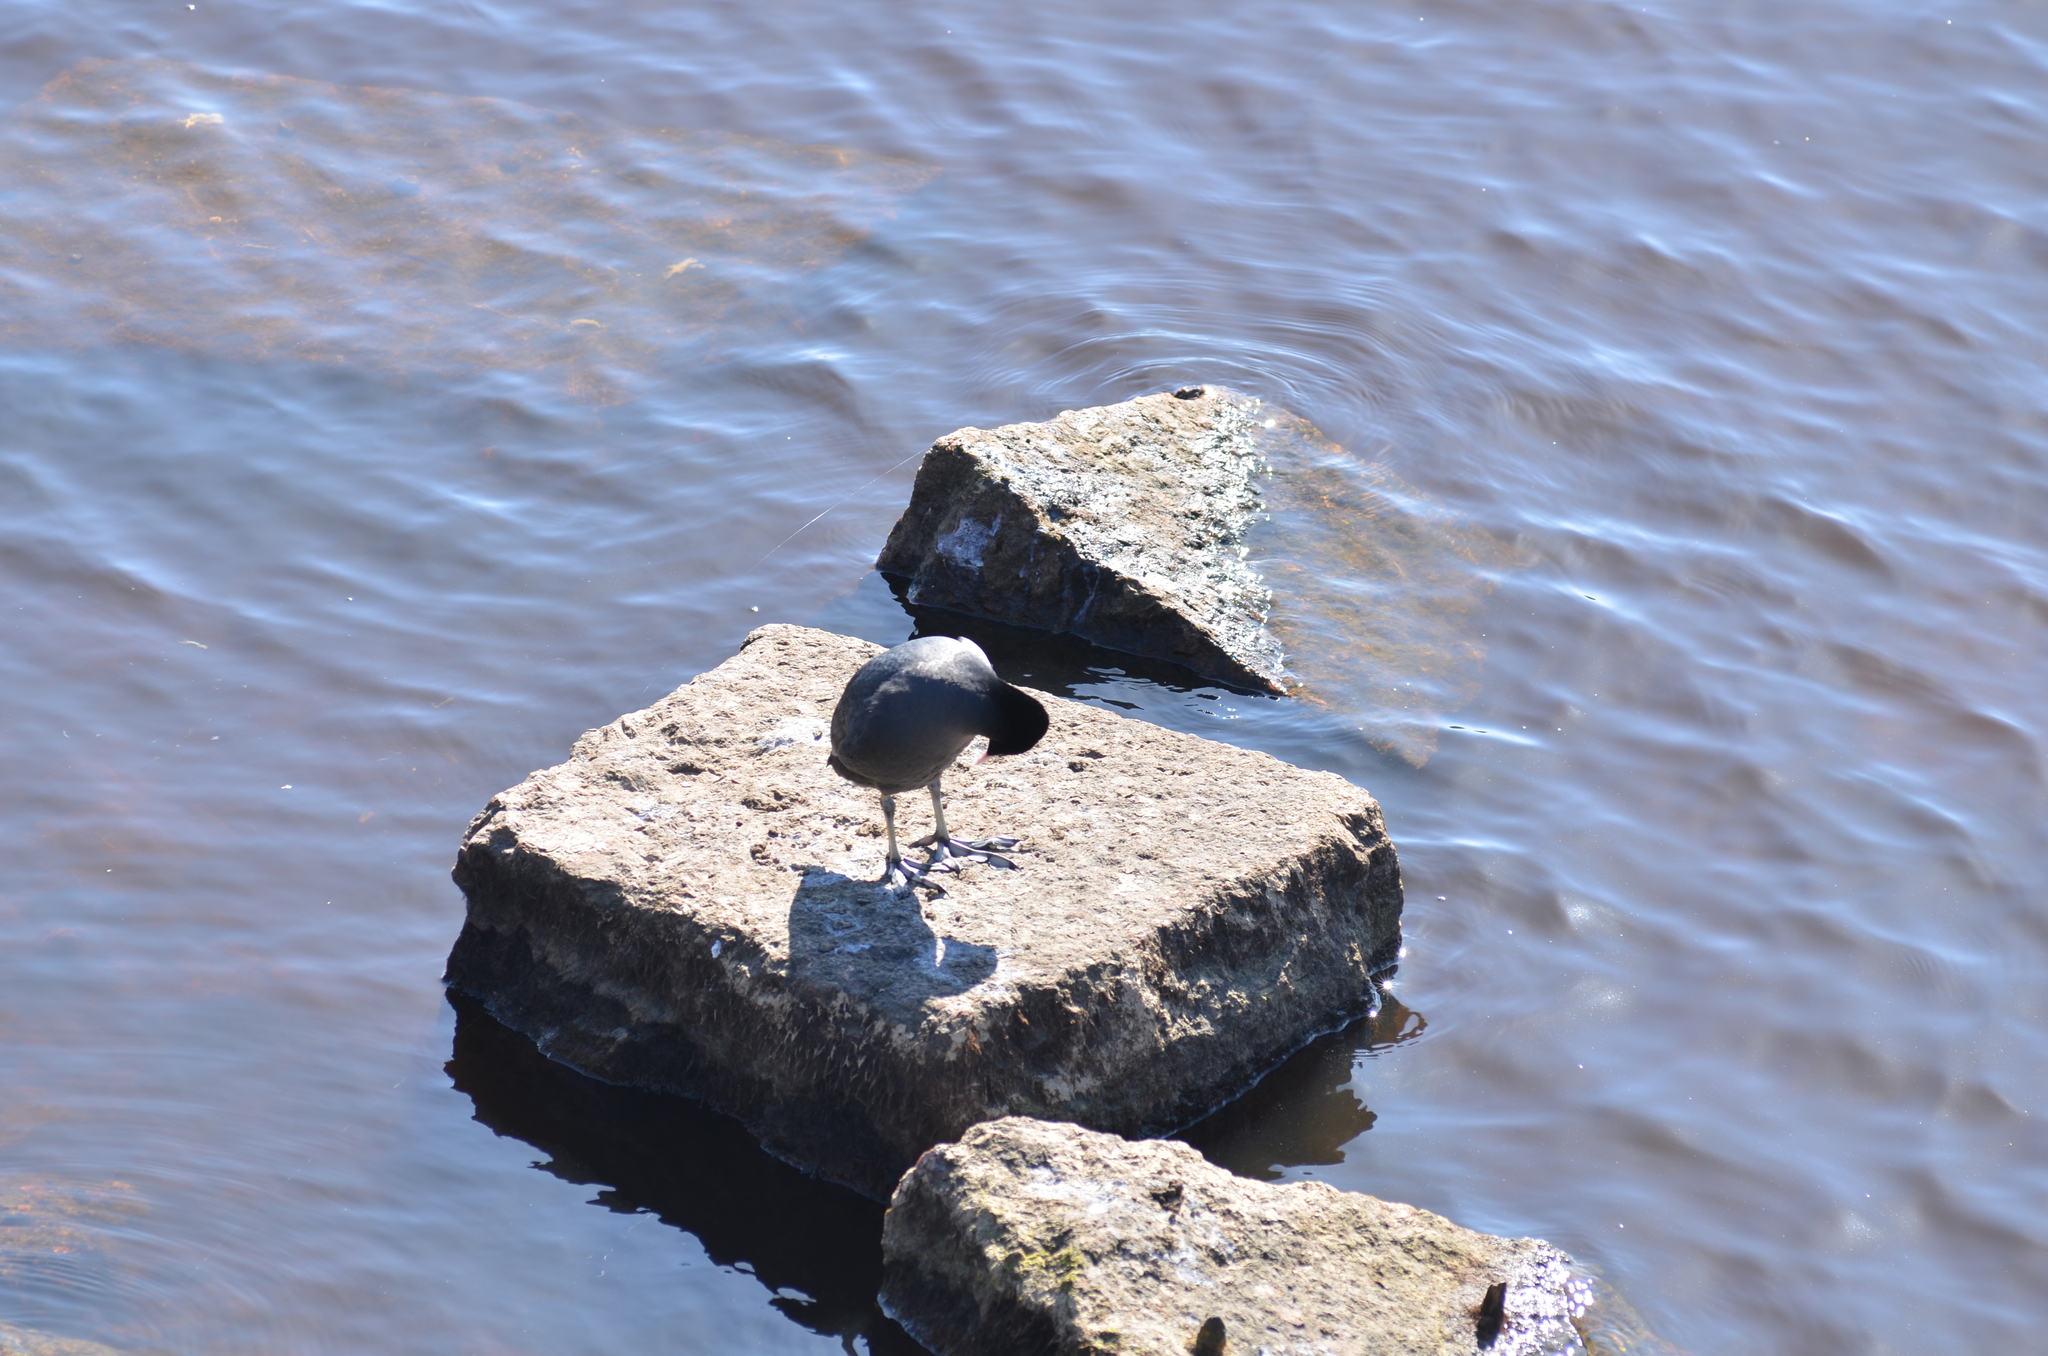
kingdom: Animalia
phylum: Chordata
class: Aves
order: Gruiformes
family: Rallidae
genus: Fulica
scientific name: Fulica atra
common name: Eurasian coot
